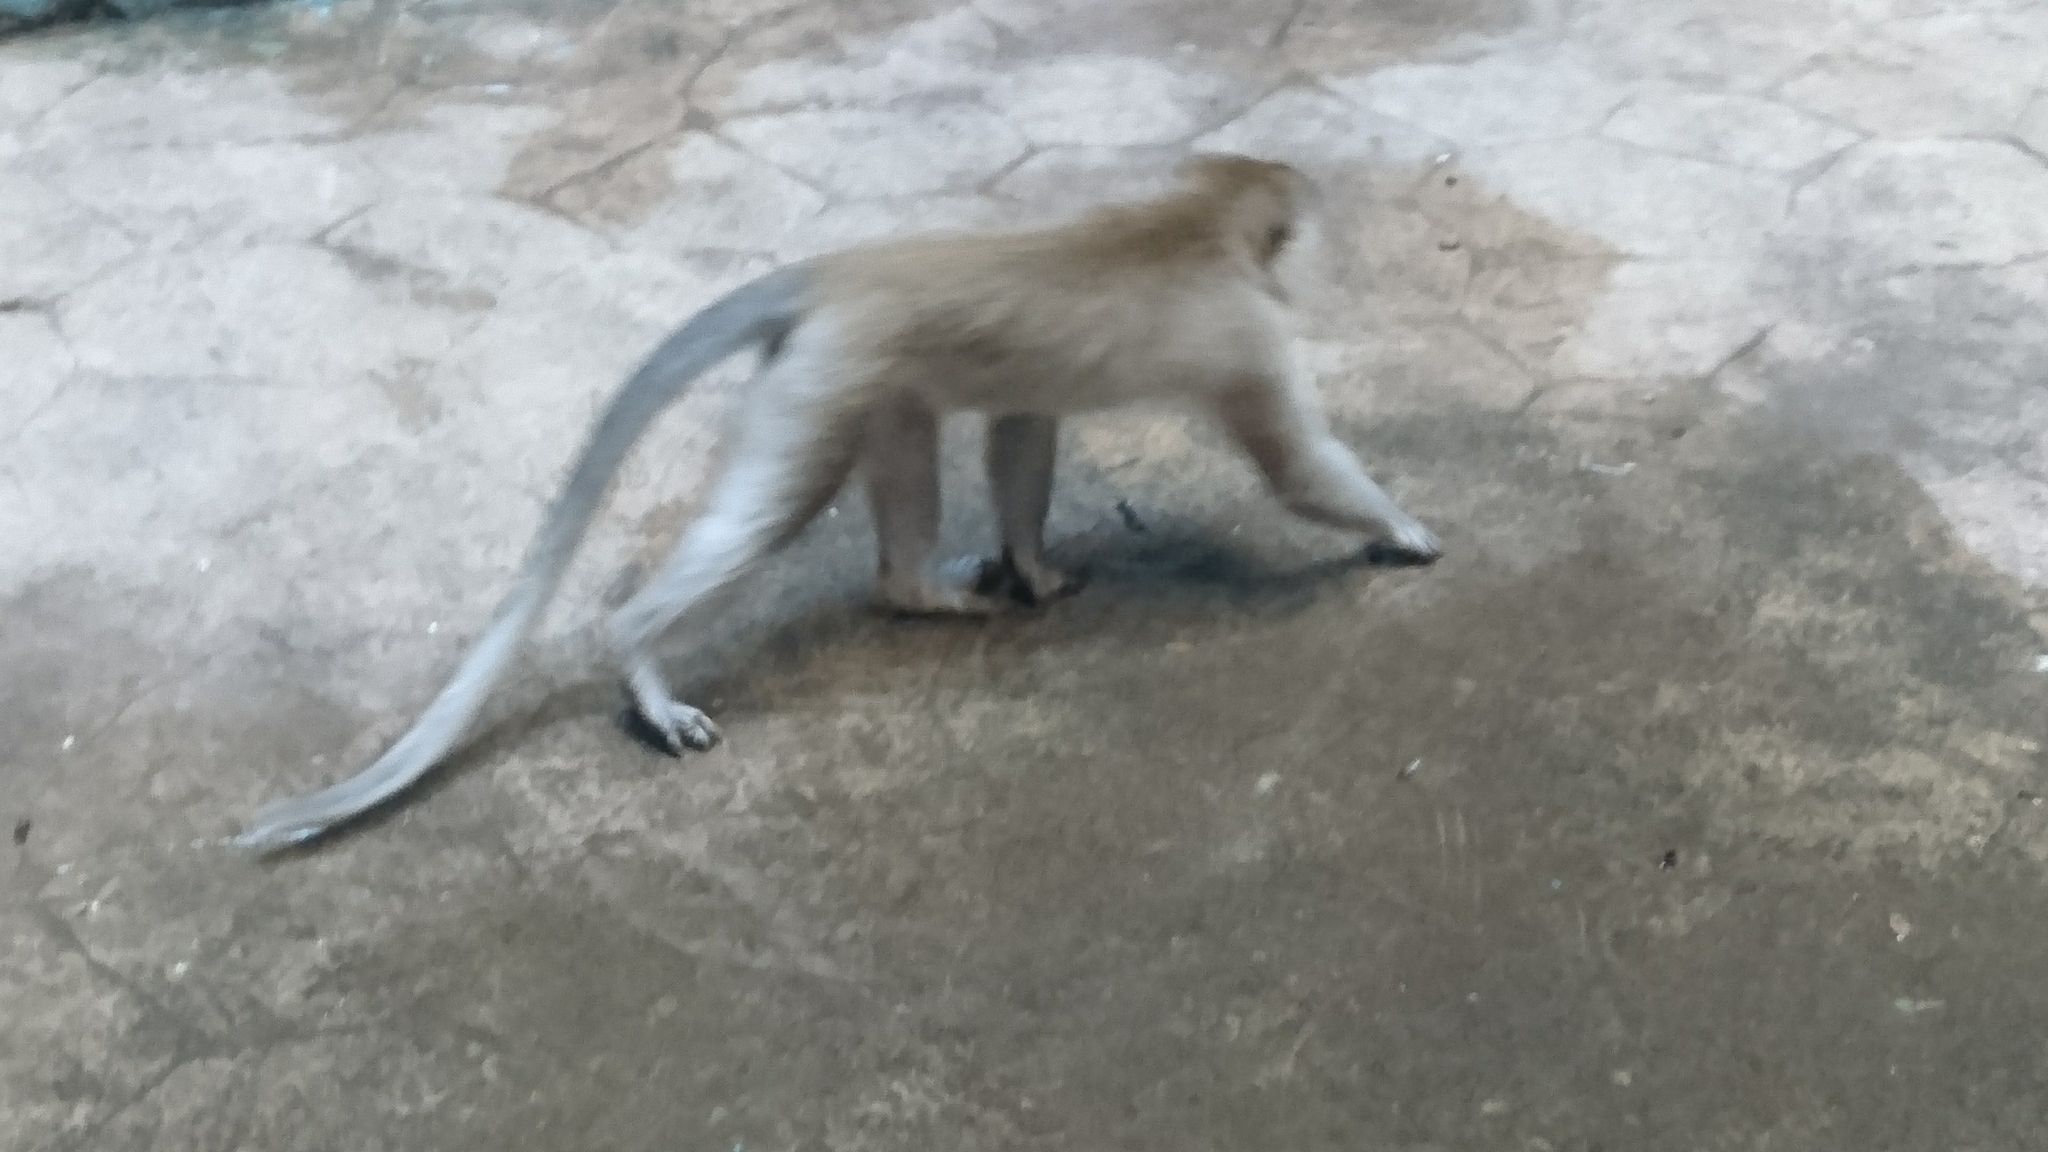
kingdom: Animalia
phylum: Chordata
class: Mammalia
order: Primates
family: Cercopithecidae
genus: Macaca
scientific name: Macaca fascicularis
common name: Crab-eating macaque
